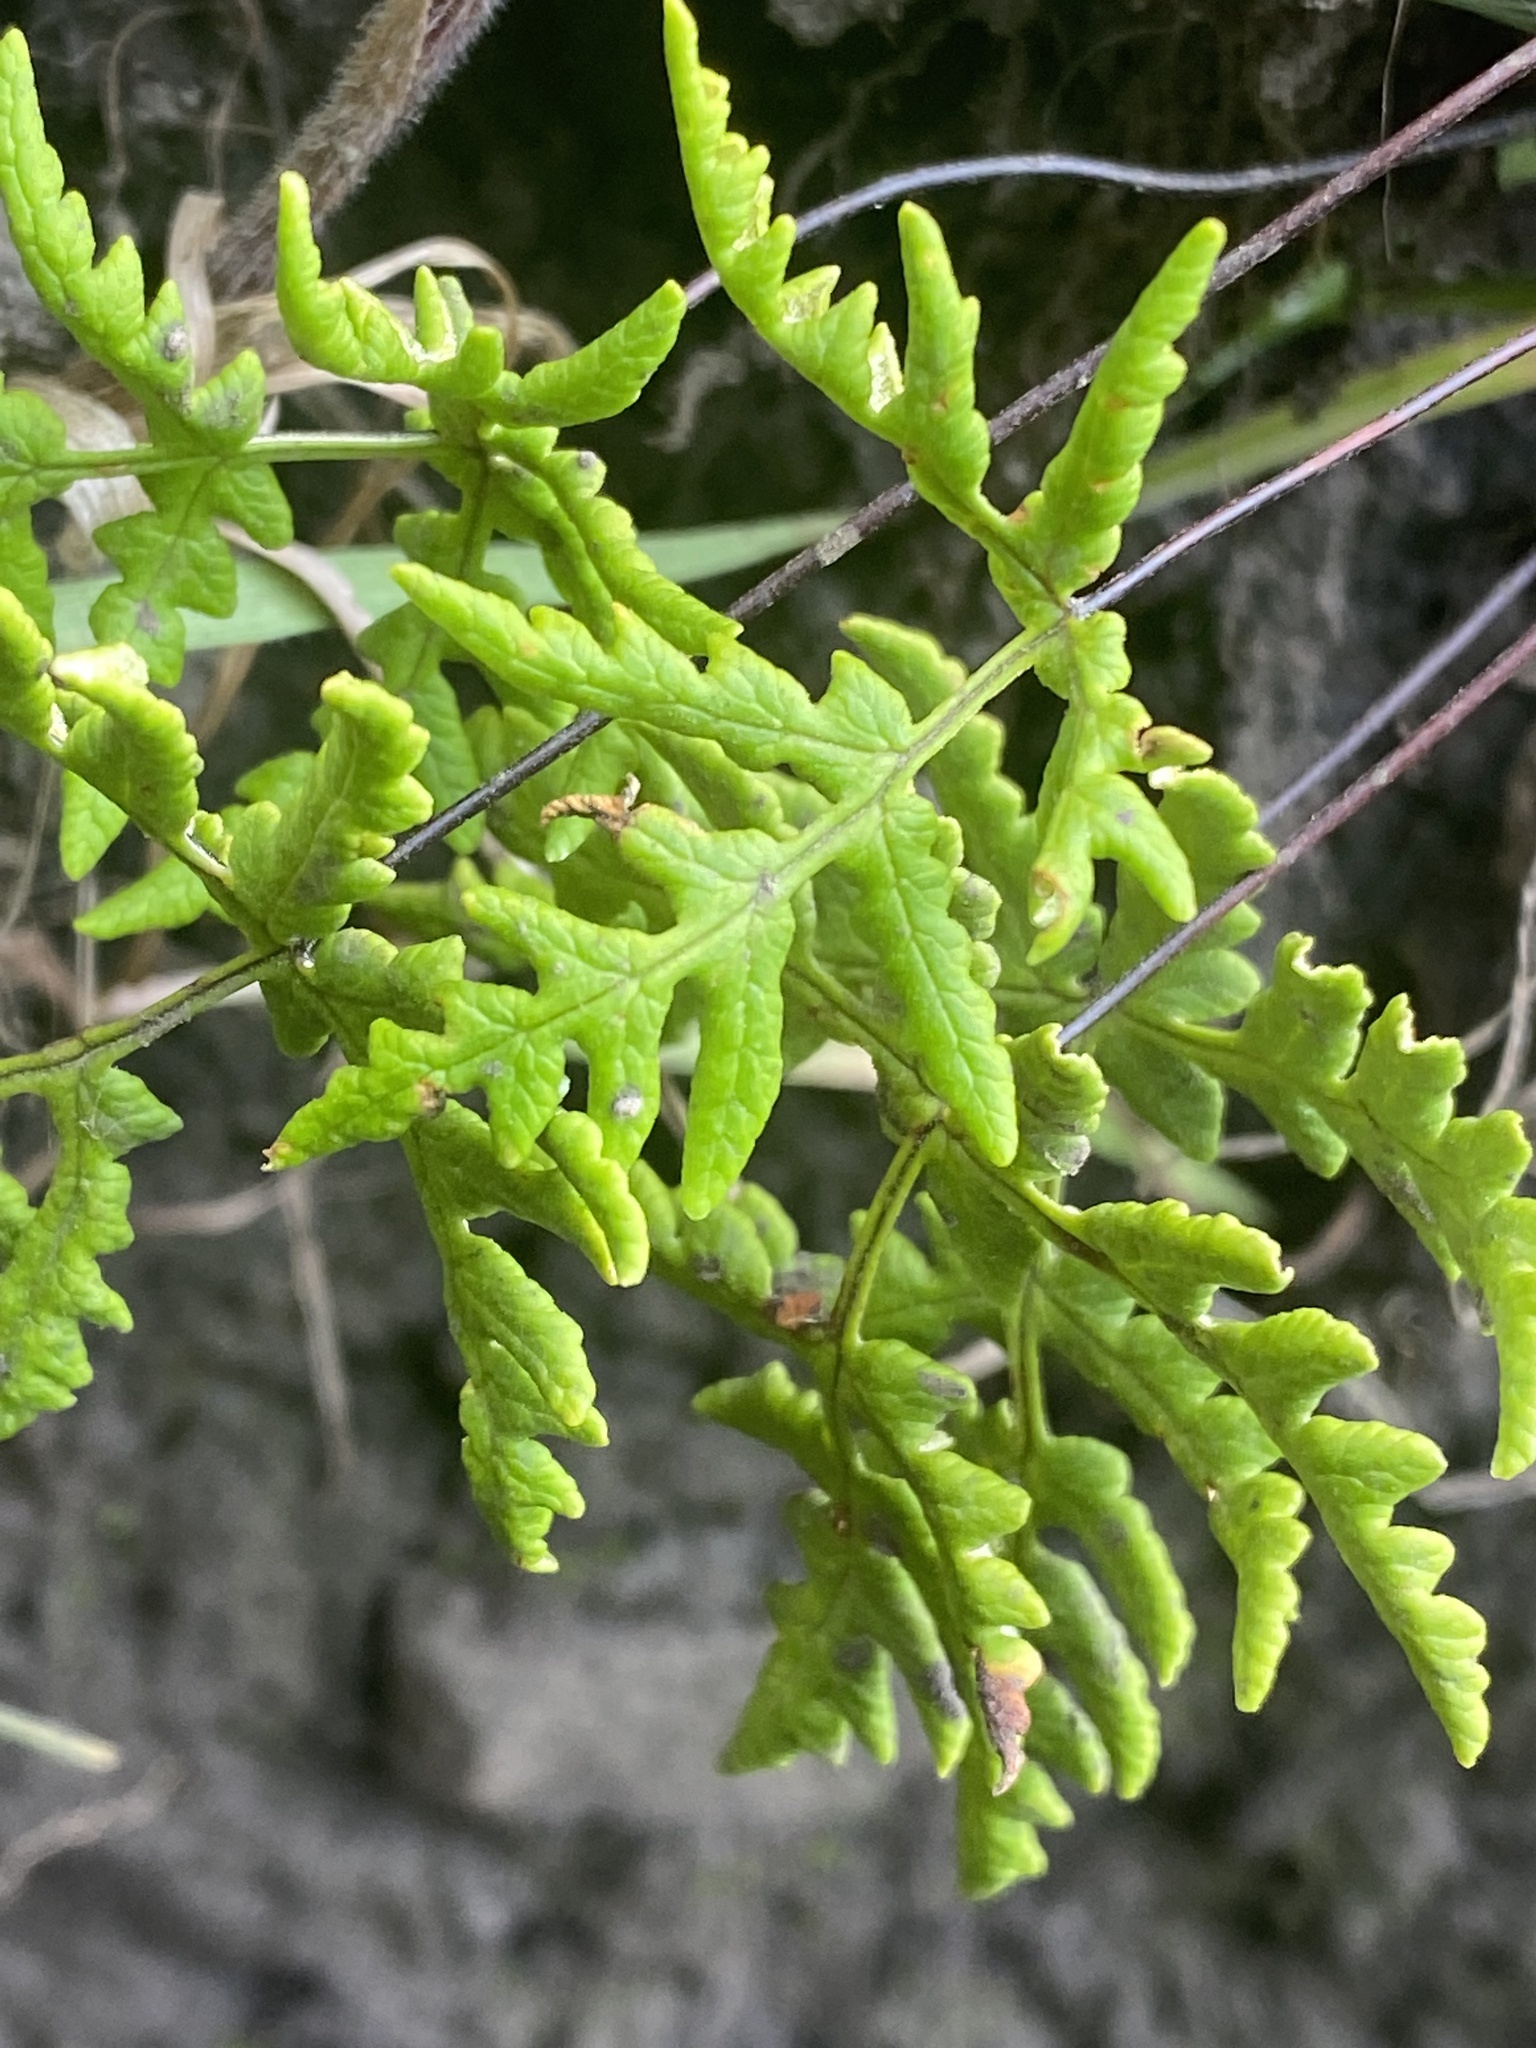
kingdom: Plantae
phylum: Tracheophyta
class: Polypodiopsida
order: Polypodiales
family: Pteridaceae
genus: Pentagramma
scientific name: Pentagramma triangularis
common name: Gold fern
